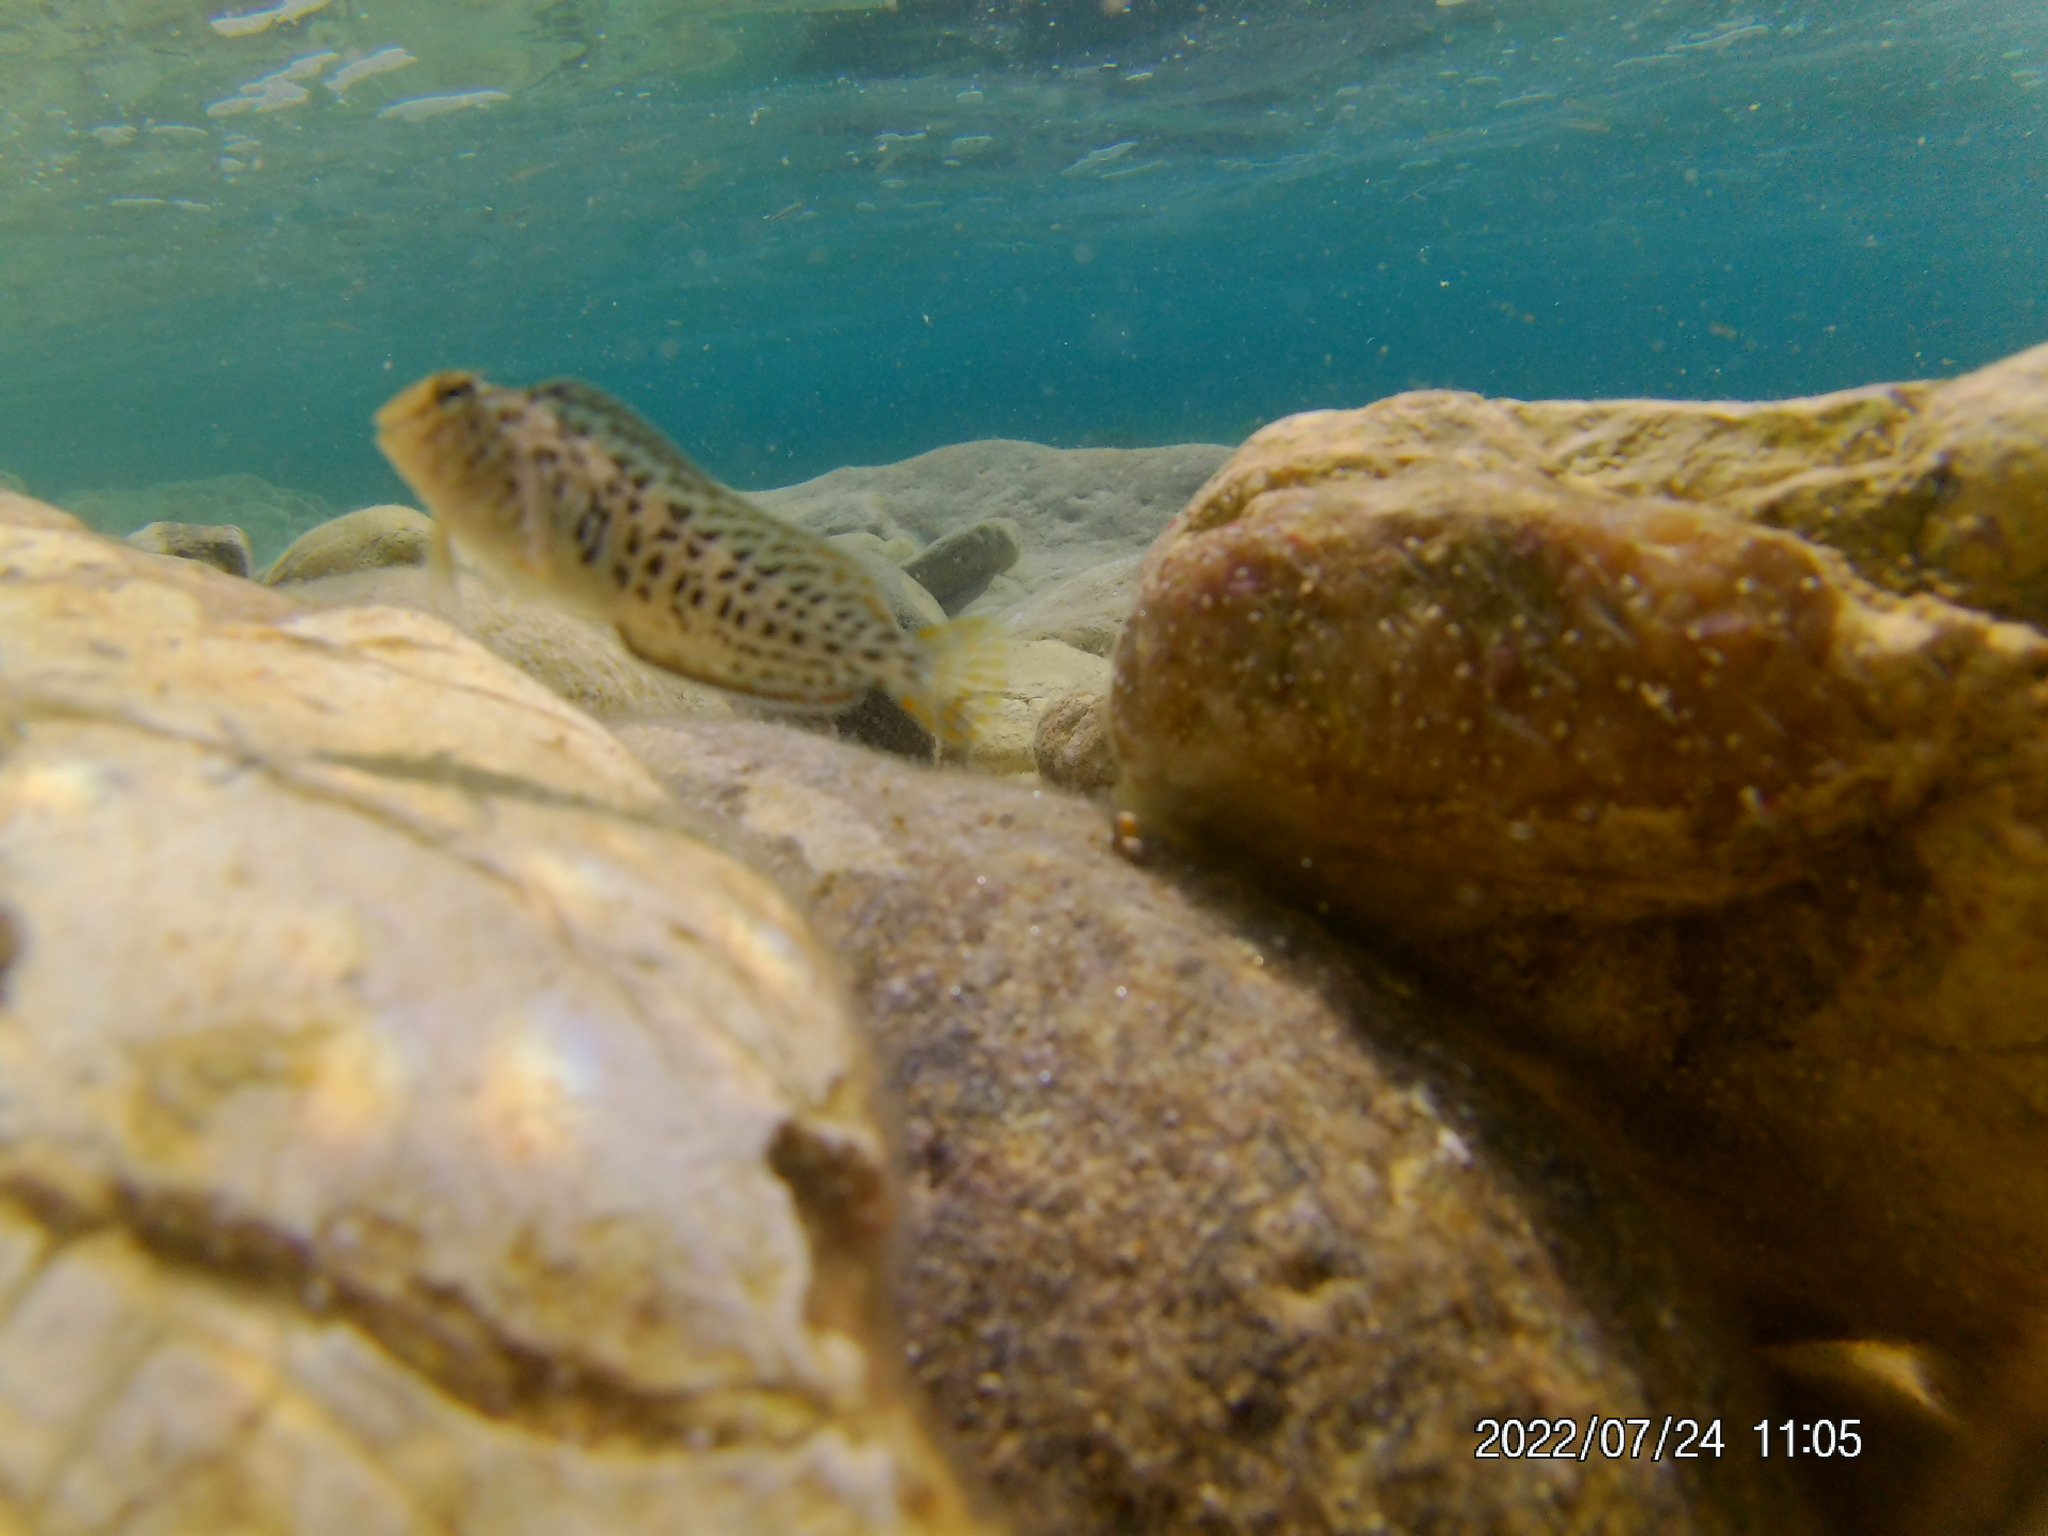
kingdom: Animalia
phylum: Chordata
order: Perciformes
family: Blenniidae
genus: Parablennius
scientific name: Parablennius sanguinolentus
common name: Black sea blenny
